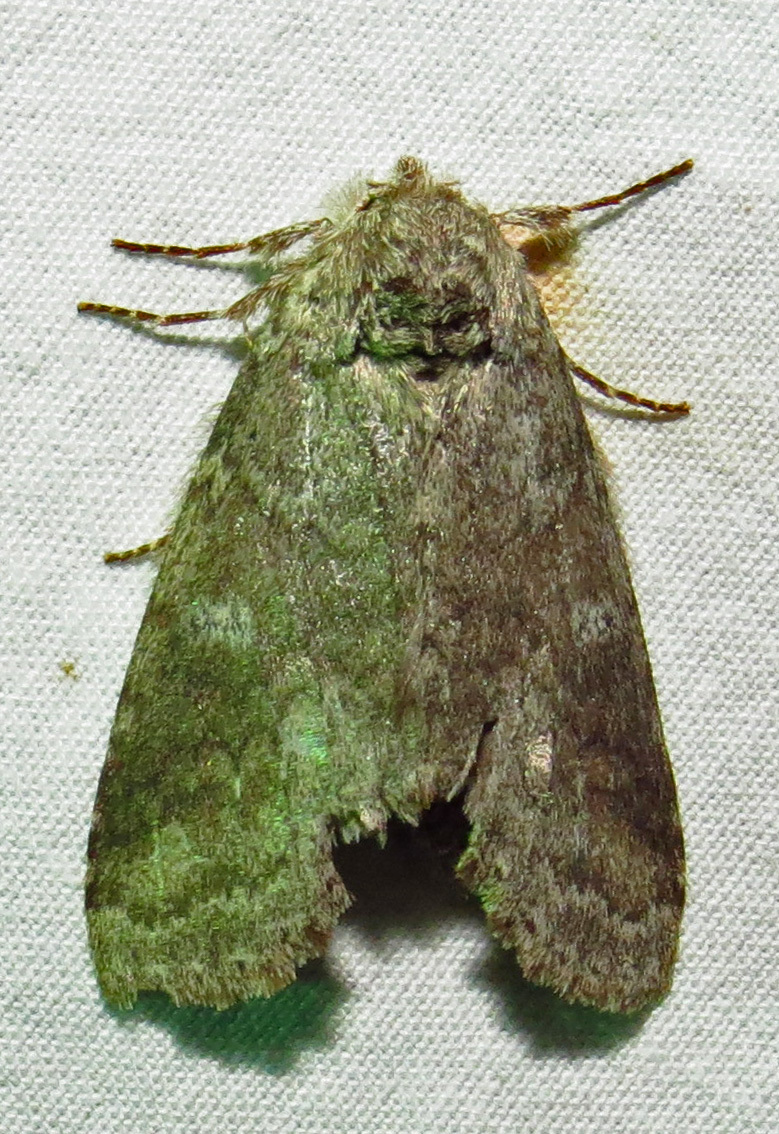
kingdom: Animalia
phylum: Arthropoda
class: Insecta
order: Lepidoptera
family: Notodontidae
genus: Lochmaeus
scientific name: Lochmaeus manteo
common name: Variable oakleaf caterpillar moth
